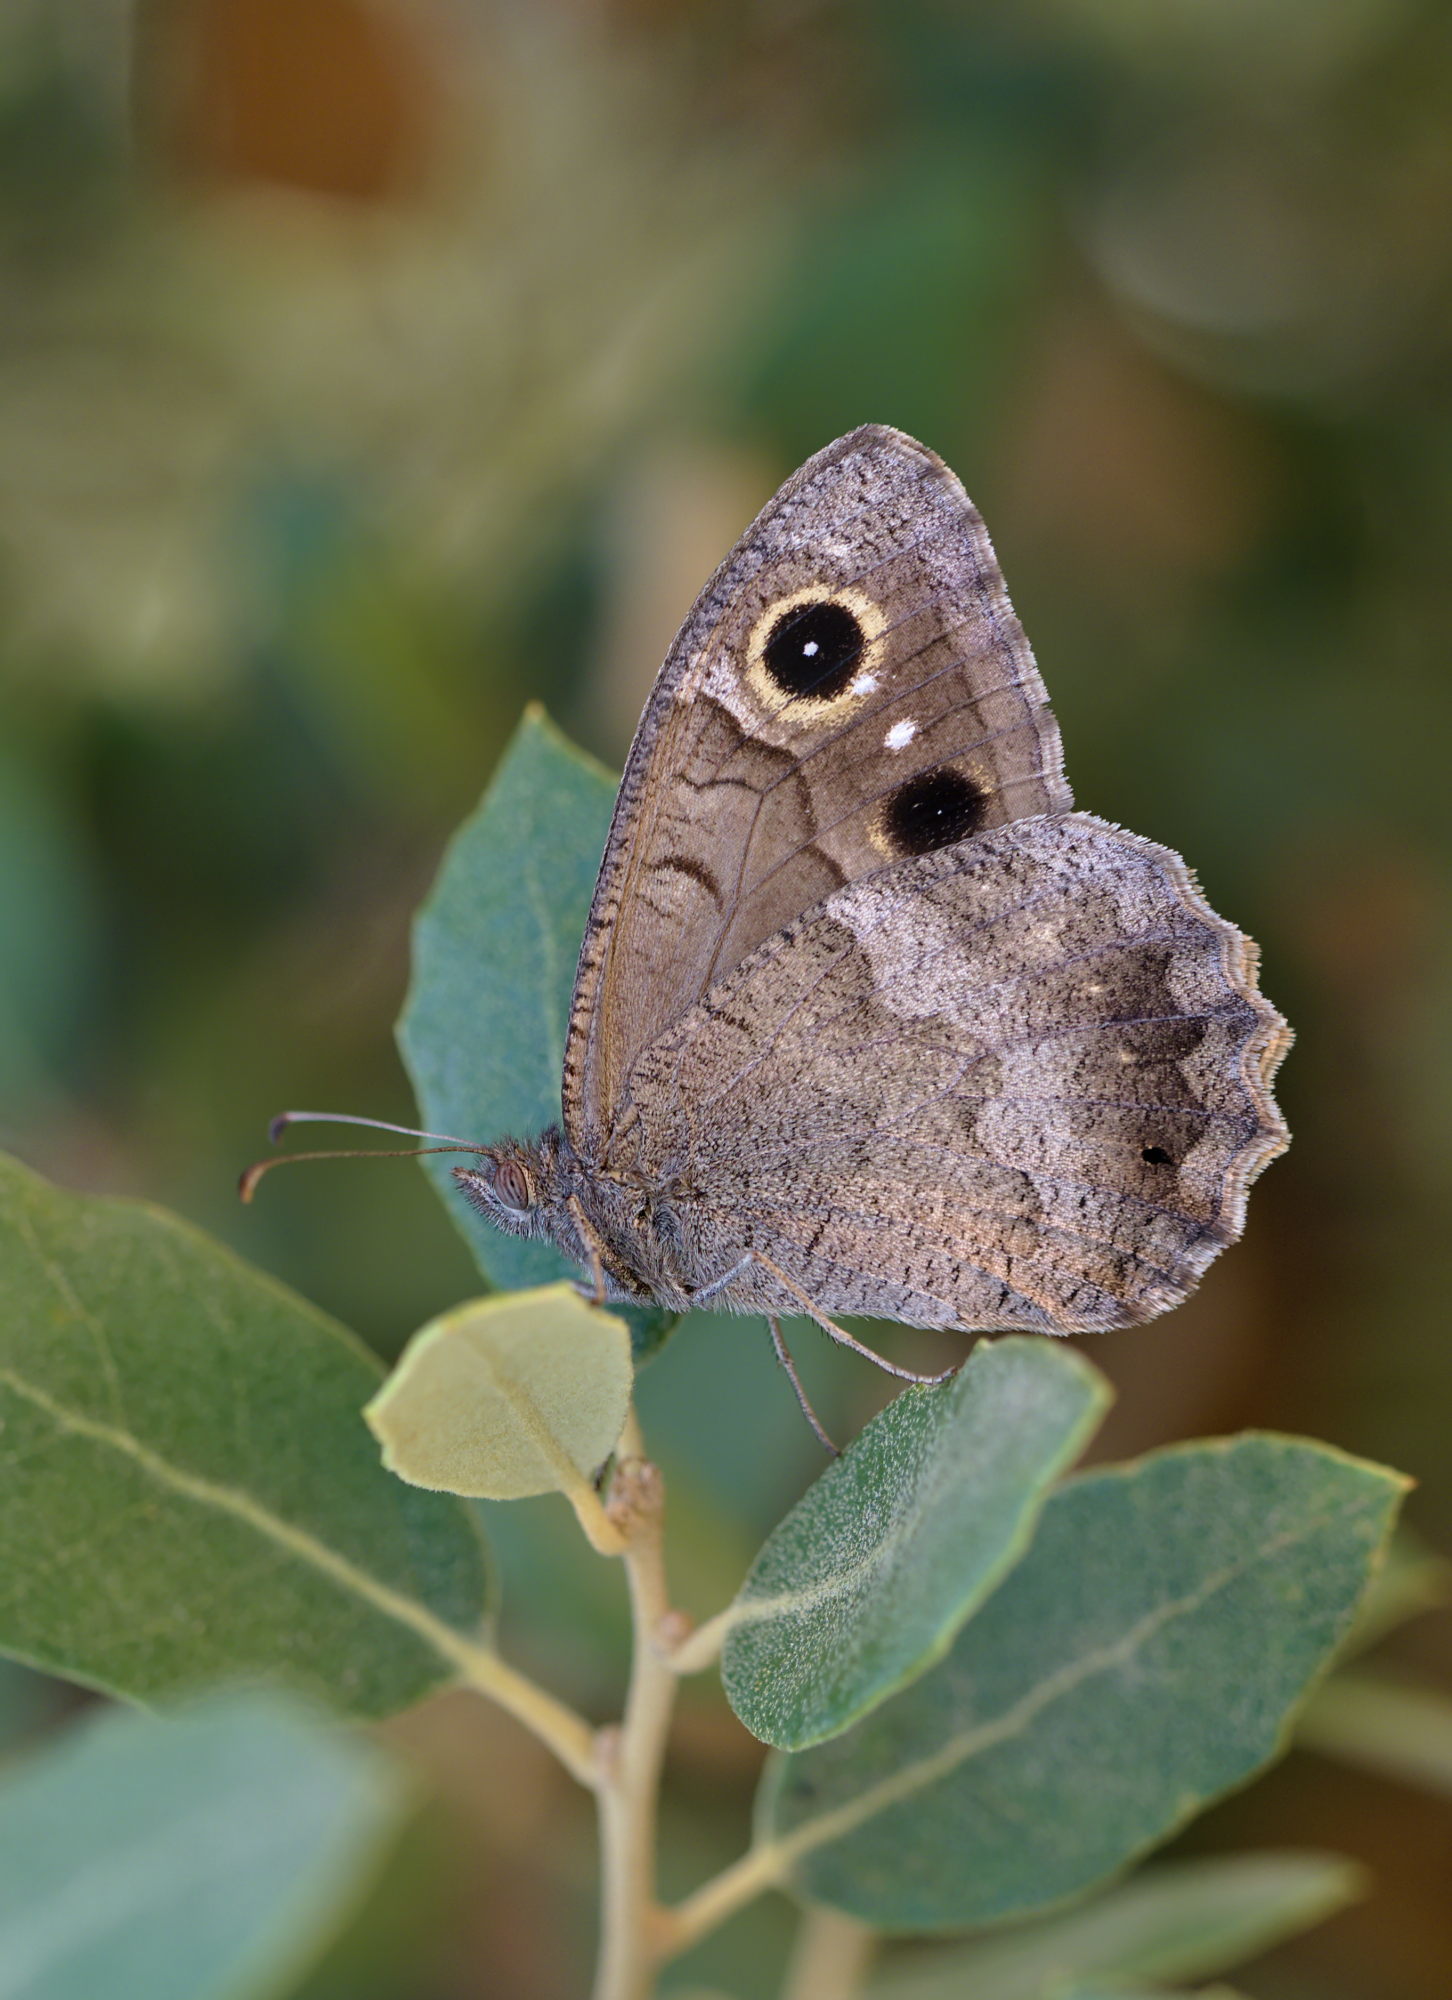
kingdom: Animalia
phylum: Arthropoda
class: Insecta
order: Lepidoptera
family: Nymphalidae
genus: Hipparchia
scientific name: Hipparchia statilinus
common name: Tree grayling
